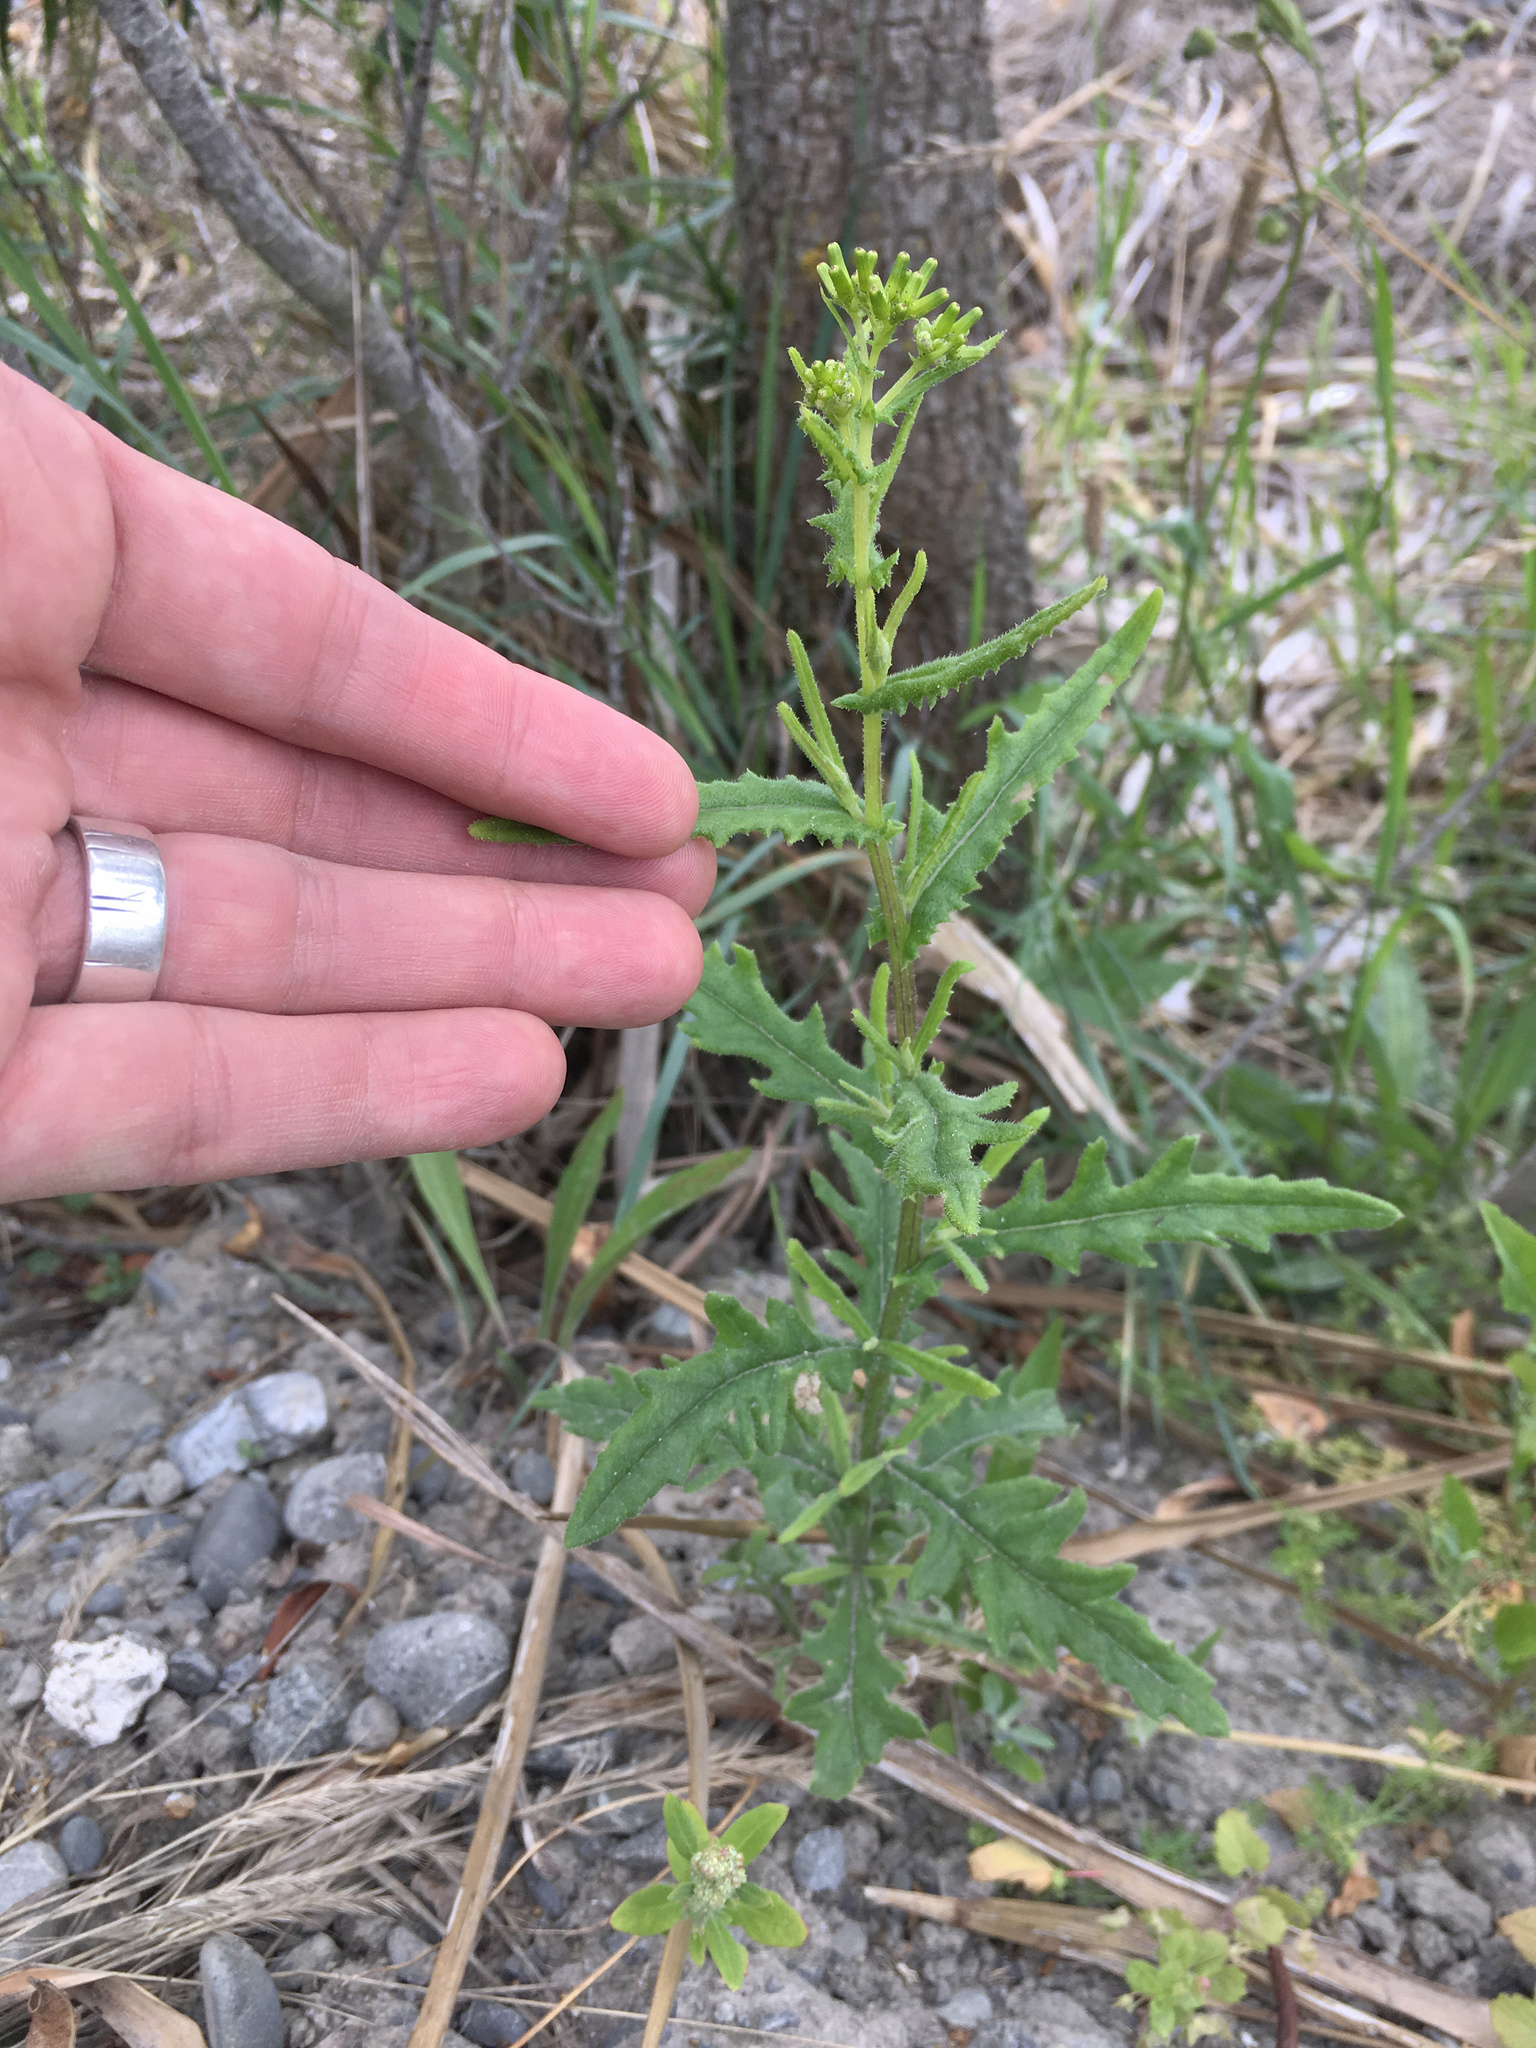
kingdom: Plantae
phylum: Tracheophyta
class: Magnoliopsida
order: Asterales
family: Asteraceae
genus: Senecio
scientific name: Senecio hispidulus
